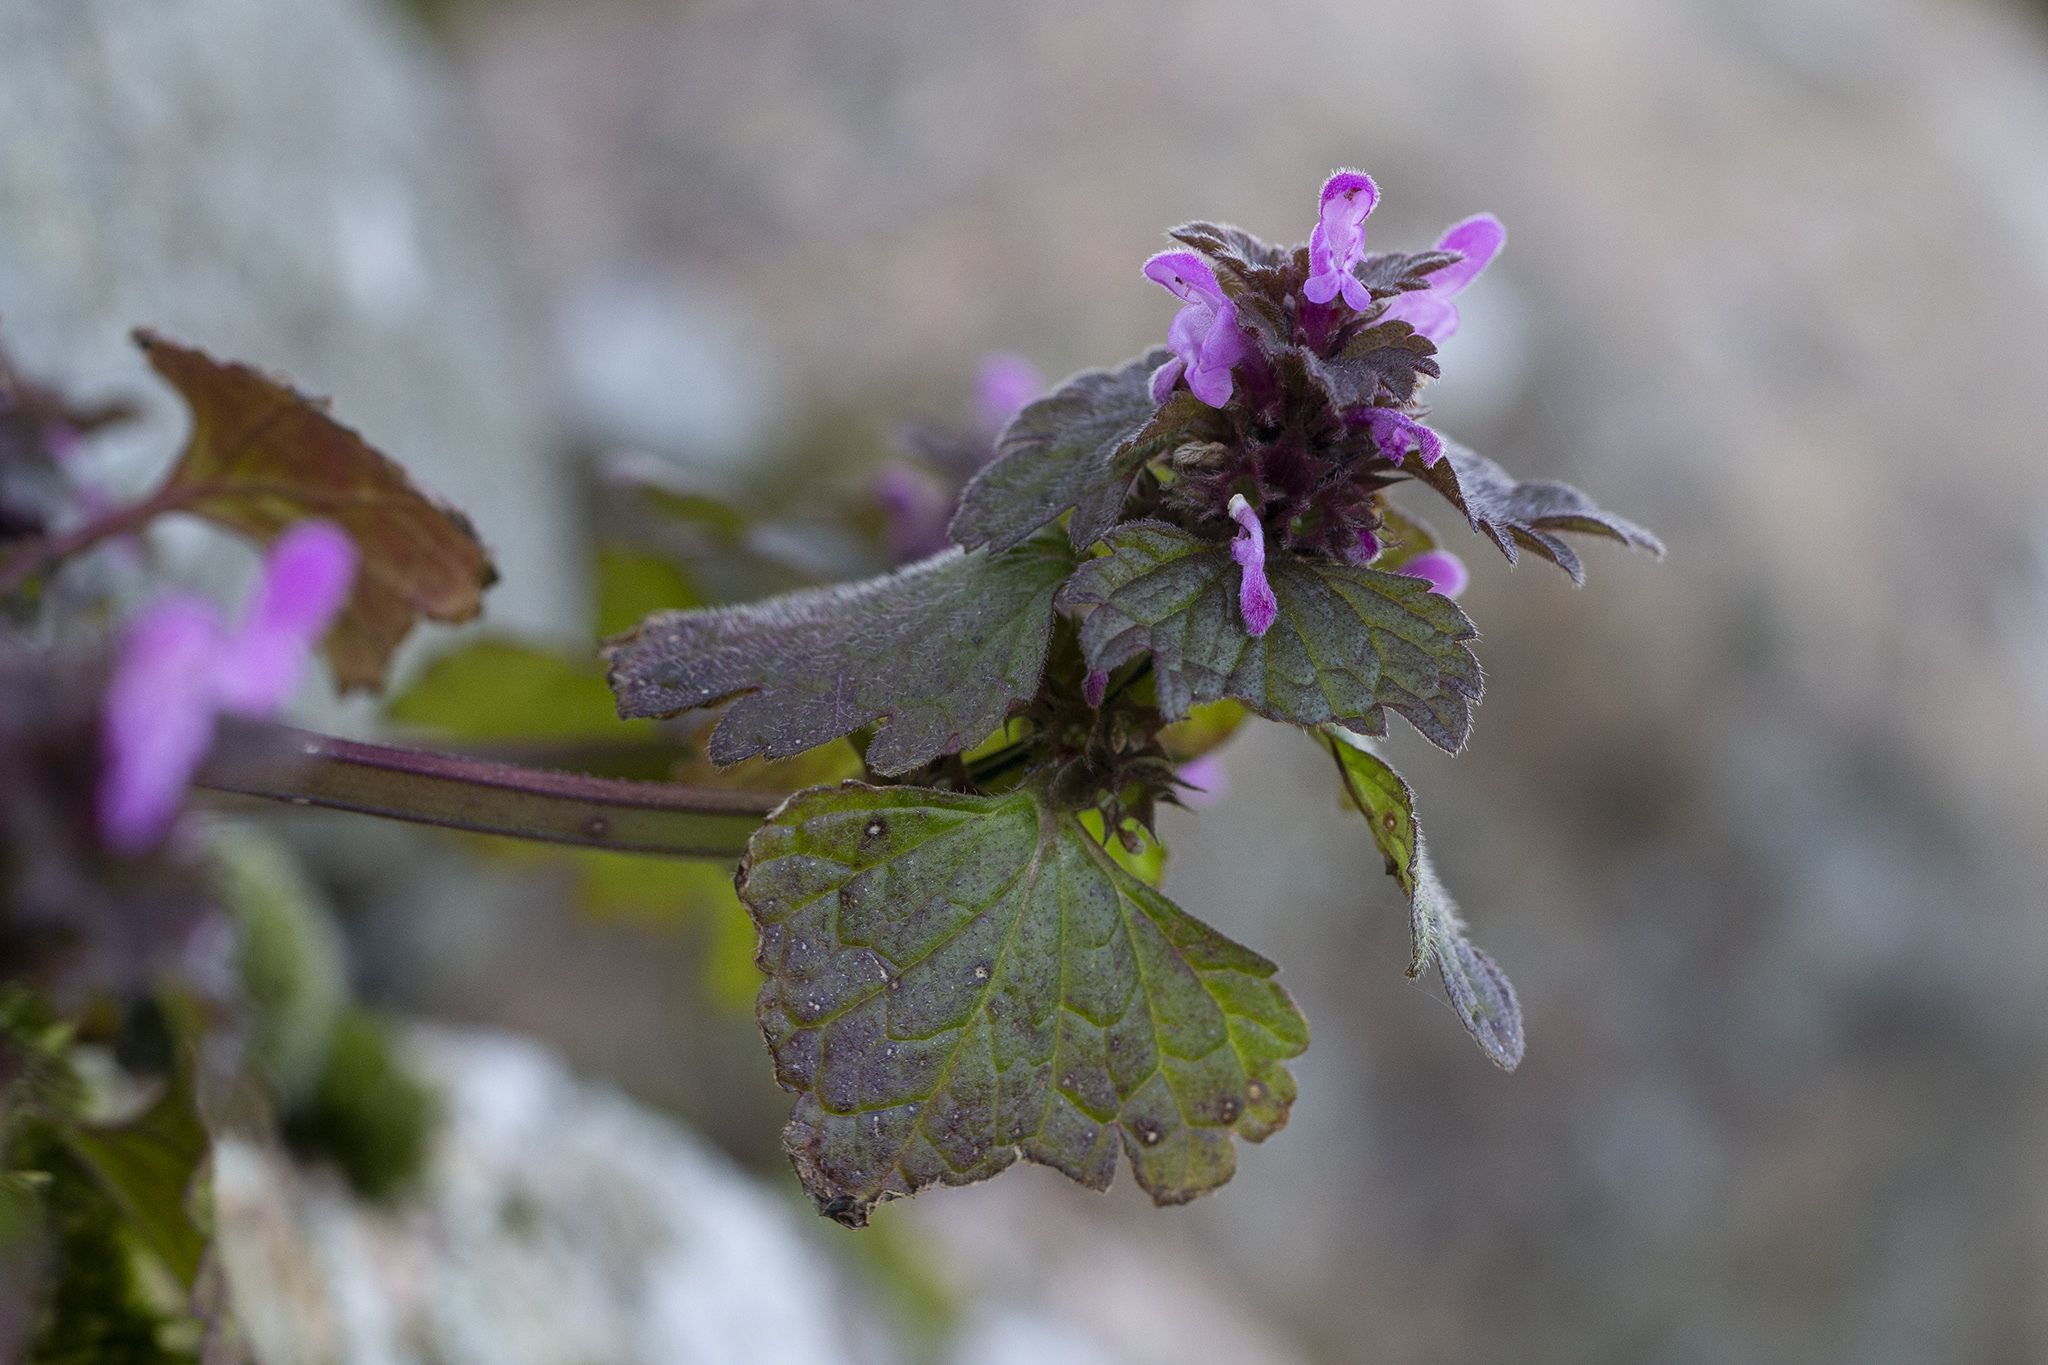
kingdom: Plantae
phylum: Tracheophyta
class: Magnoliopsida
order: Lamiales
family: Lamiaceae
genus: Lamium
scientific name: Lamium purpureum
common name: Red dead-nettle
